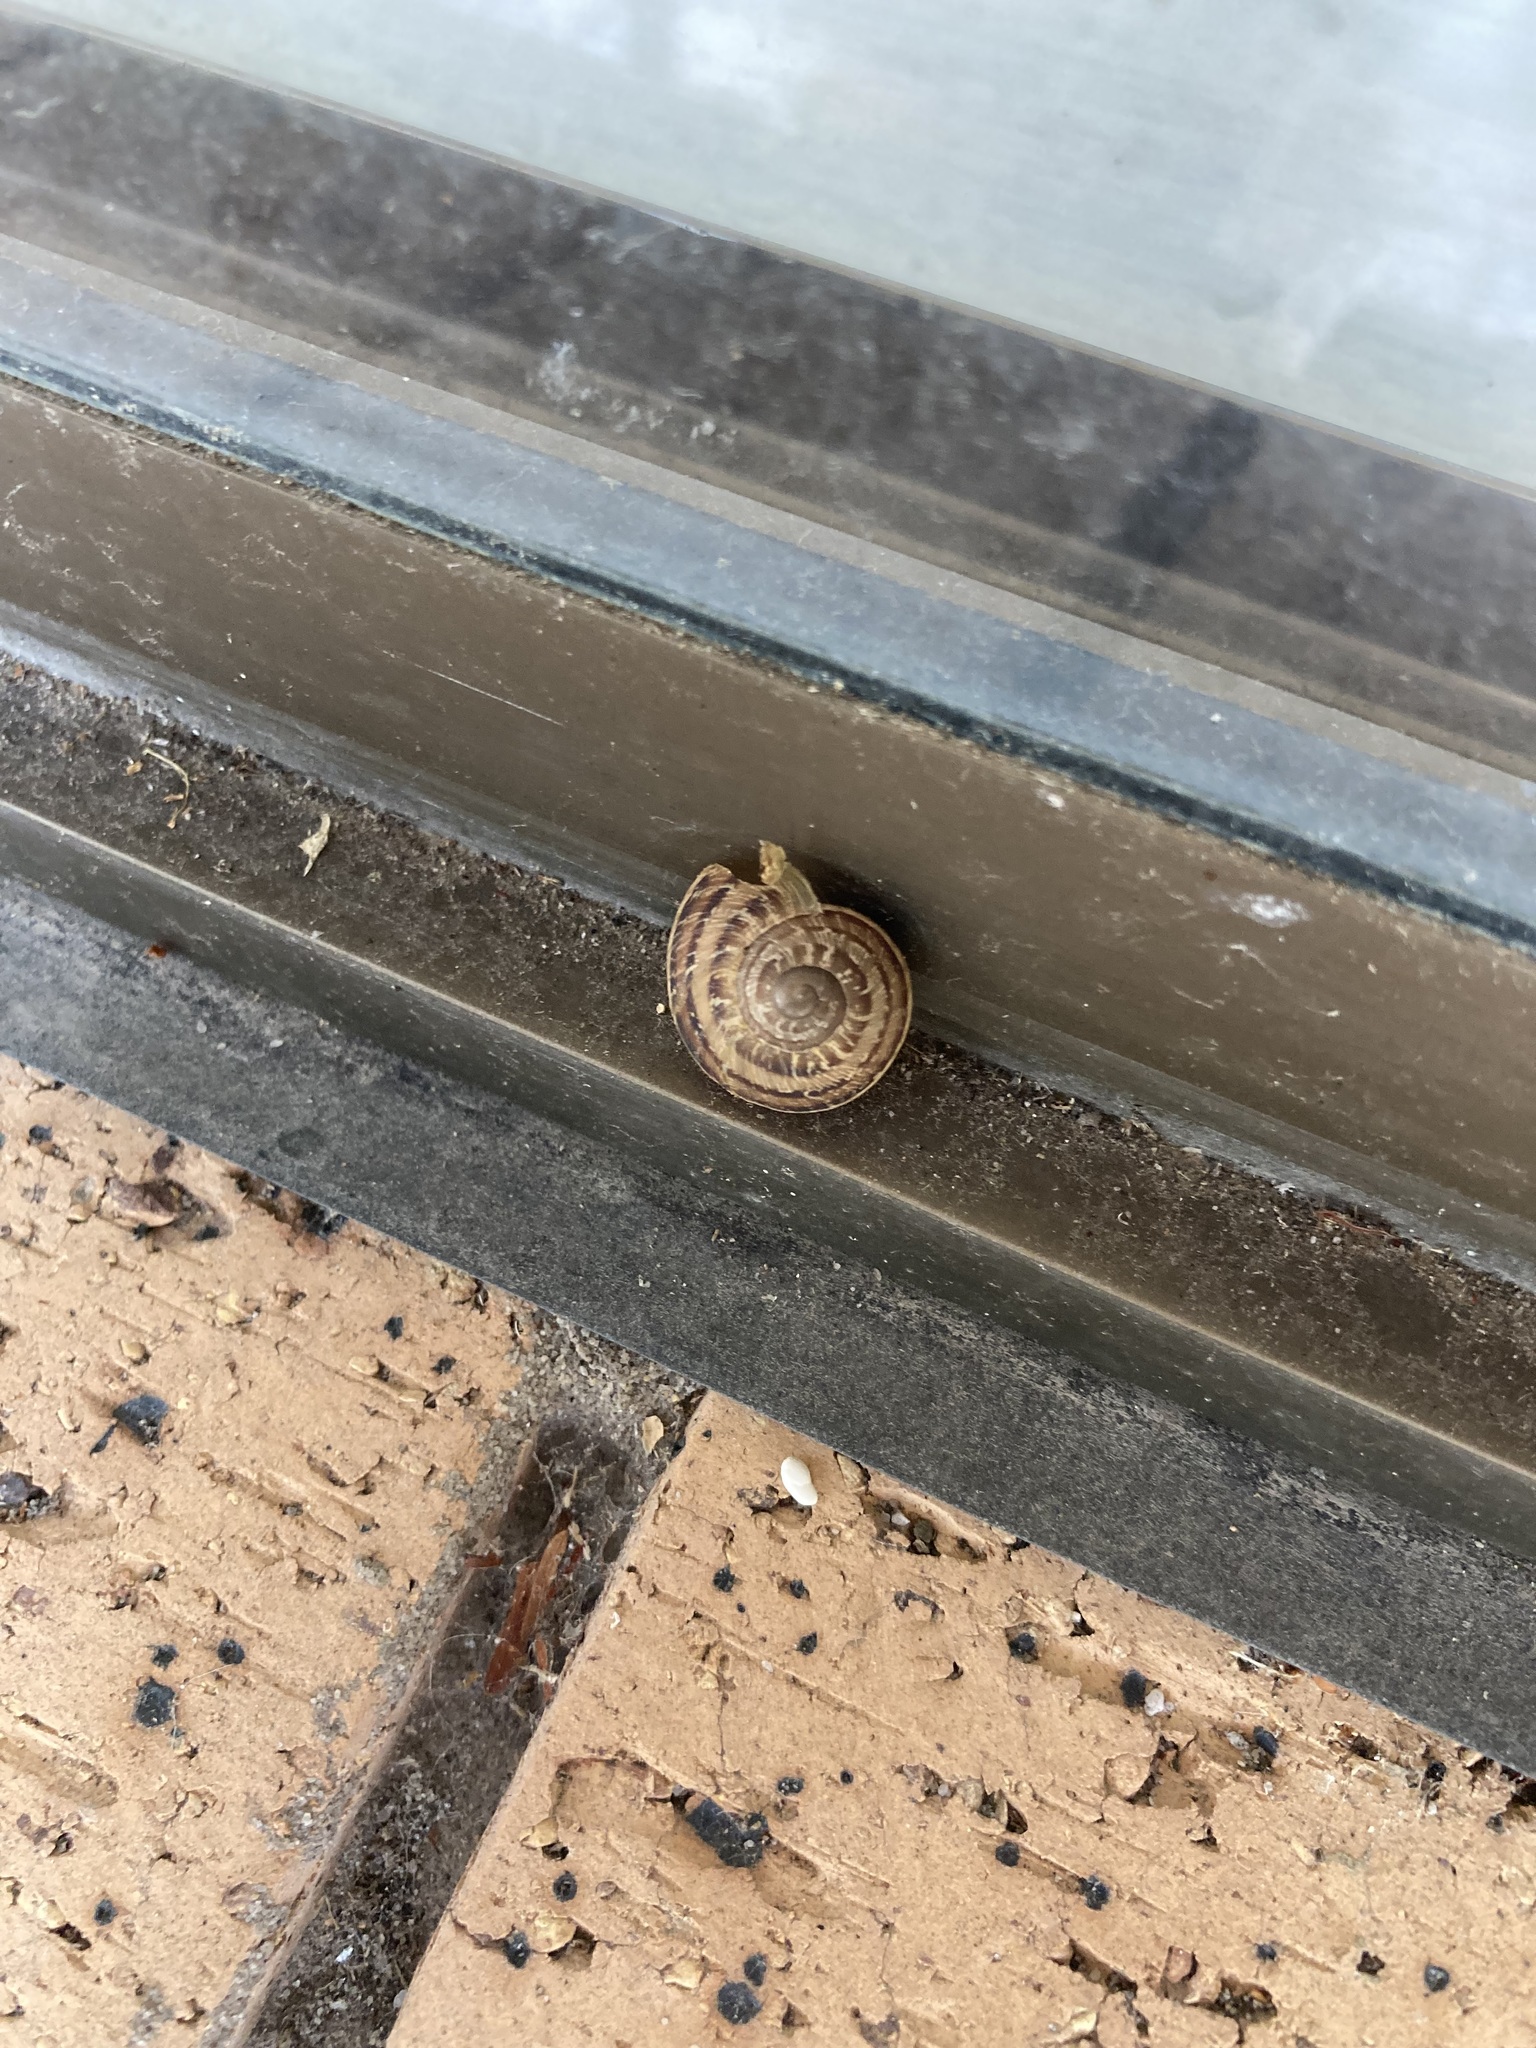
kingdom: Animalia
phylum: Mollusca
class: Gastropoda
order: Stylommatophora
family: Helicidae
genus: Cornu
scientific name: Cornu aspersum
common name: Brown garden snail
